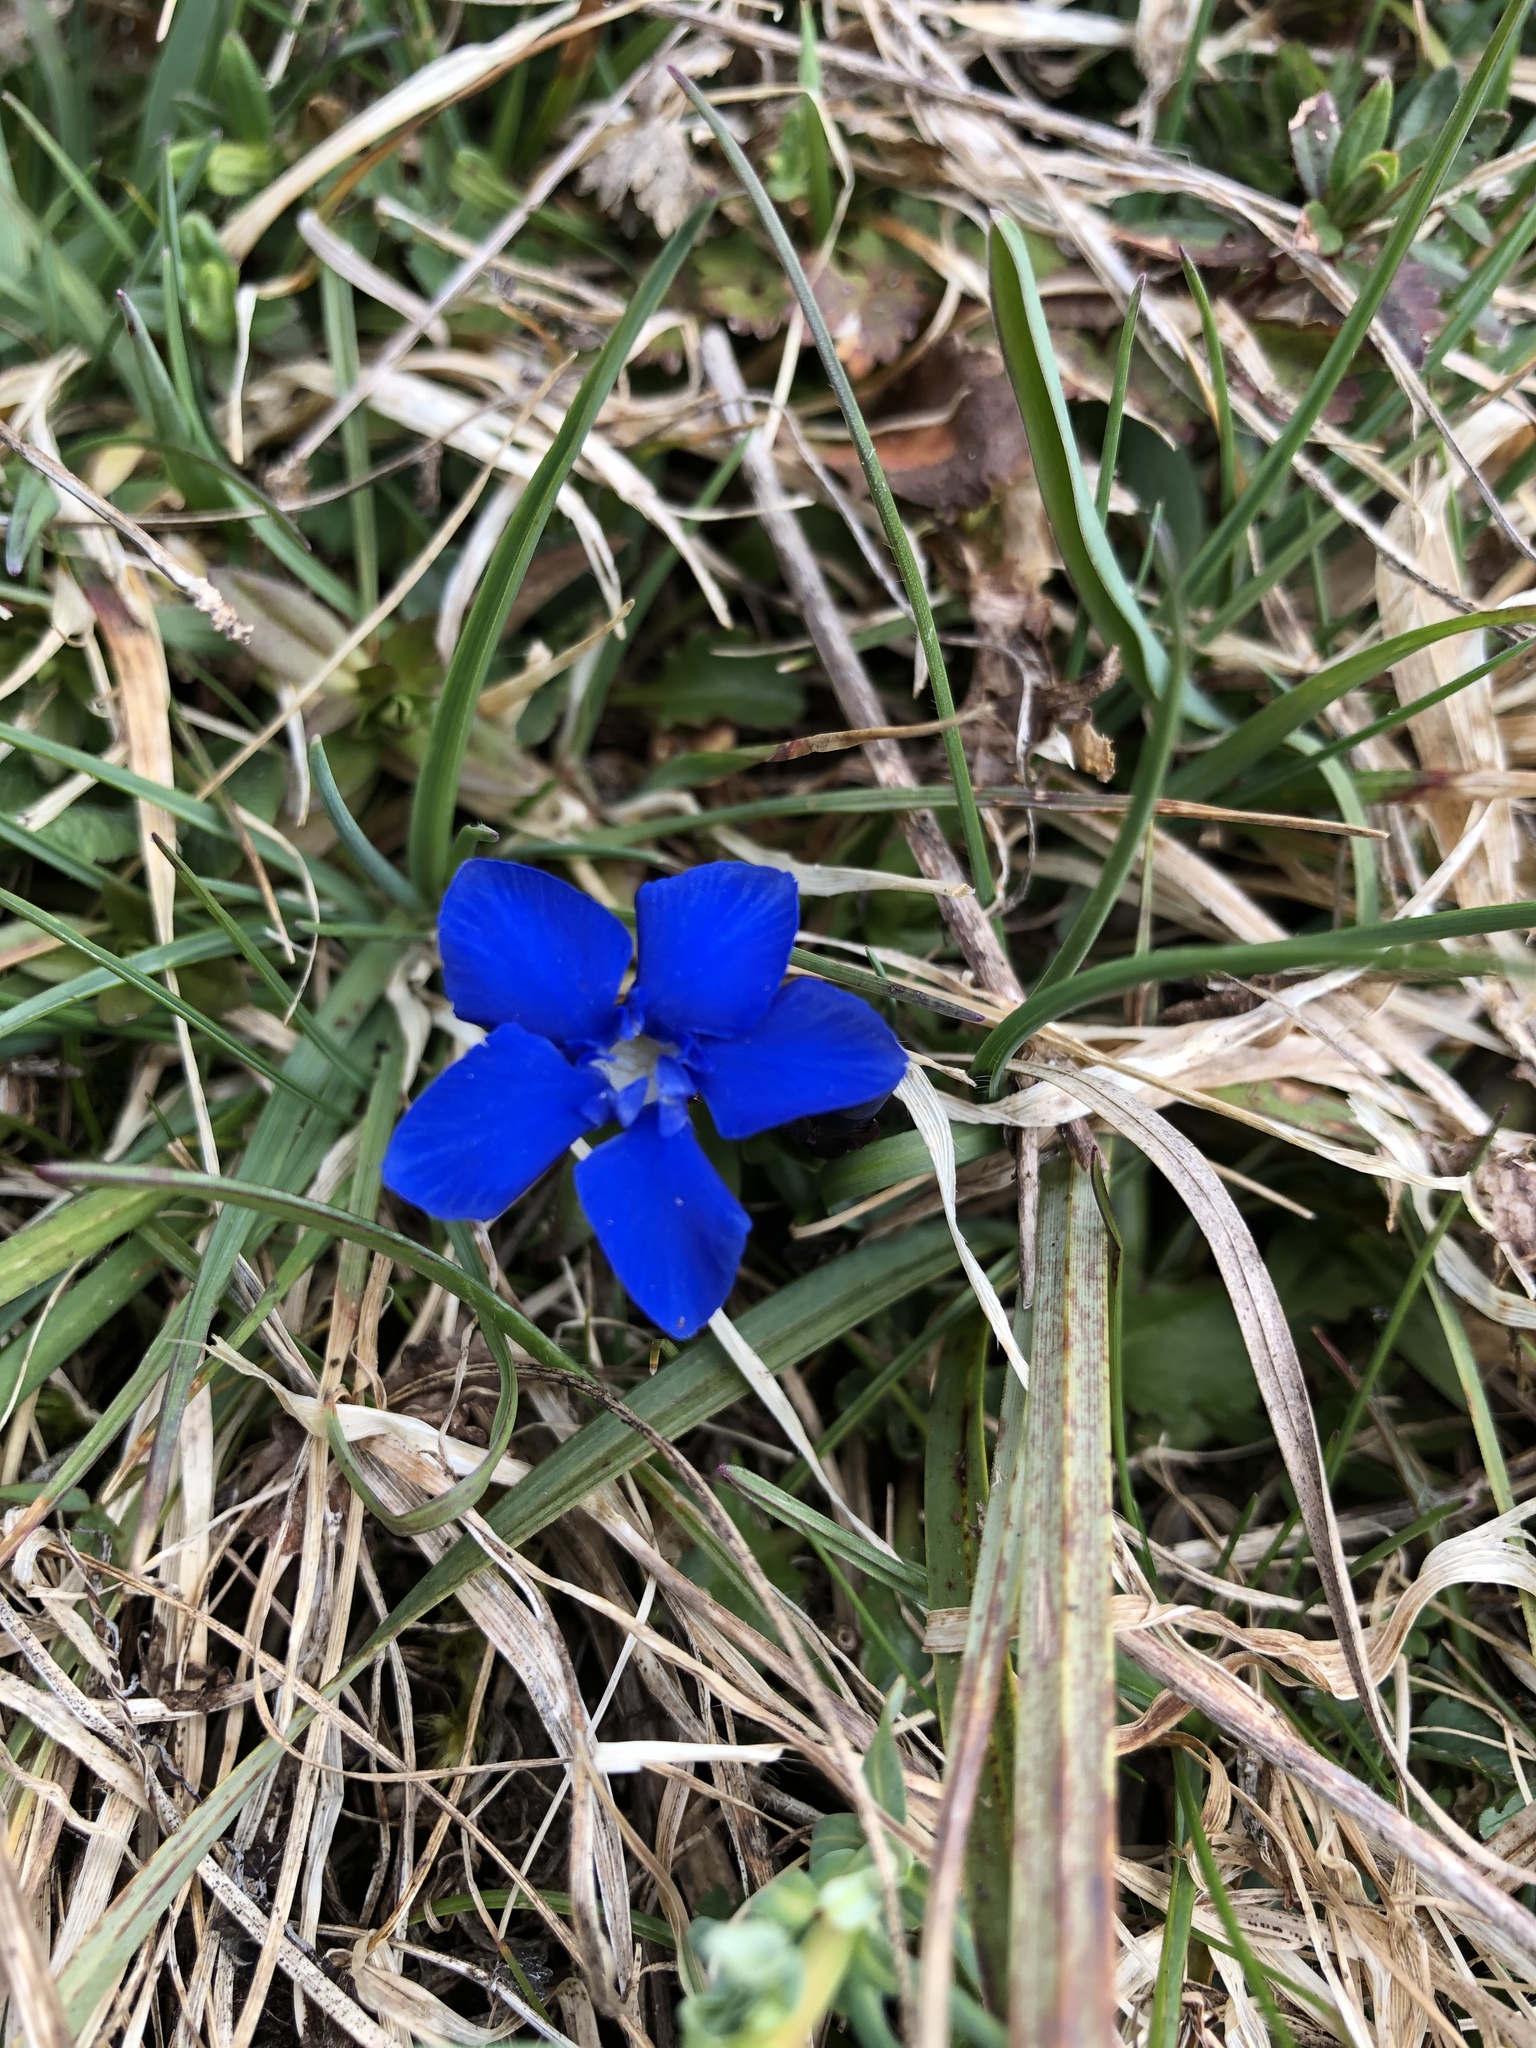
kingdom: Plantae
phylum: Tracheophyta
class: Magnoliopsida
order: Gentianales
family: Gentianaceae
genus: Gentiana
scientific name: Gentiana verna
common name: Spring gentian
